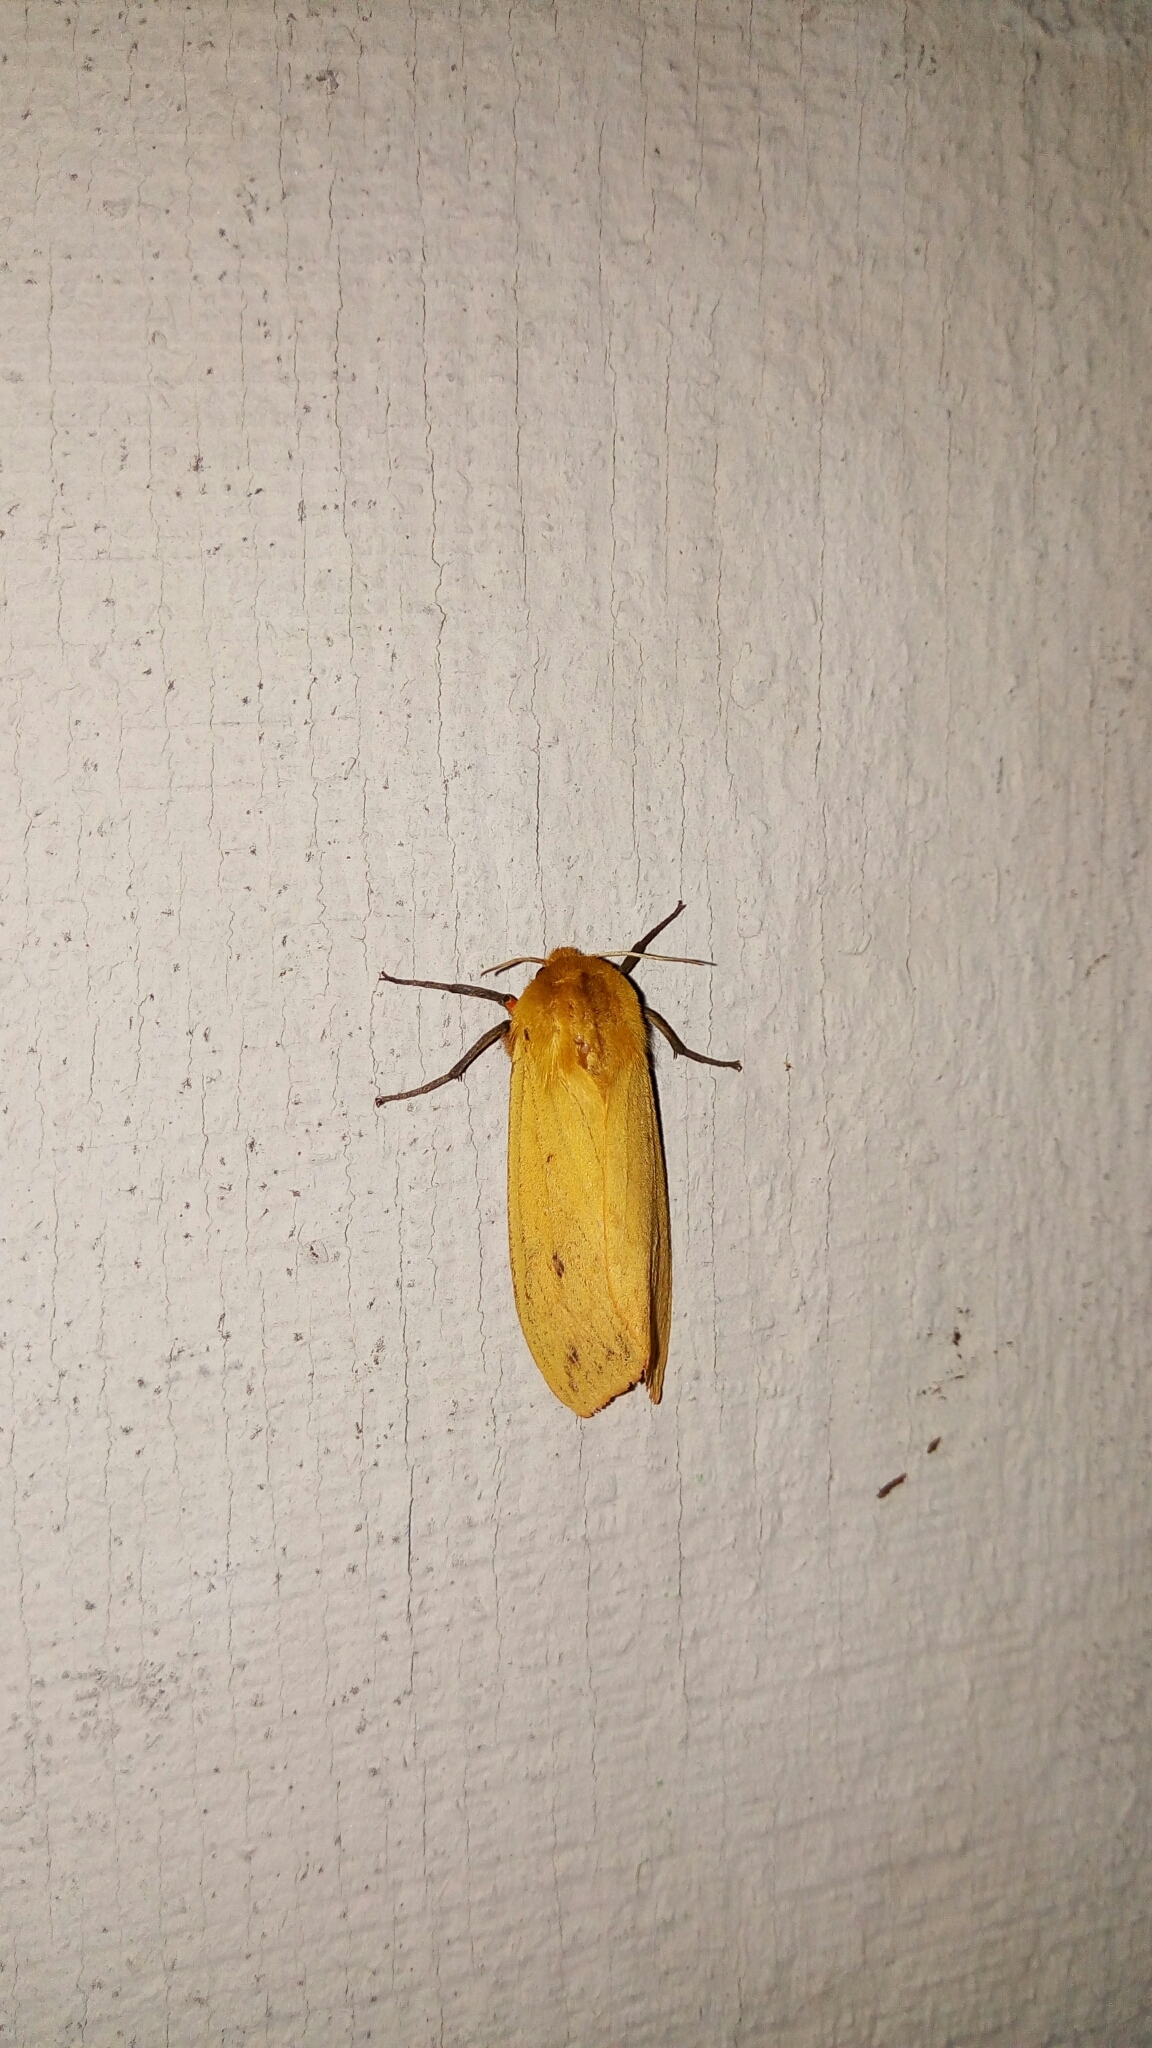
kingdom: Animalia
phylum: Arthropoda
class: Insecta
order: Lepidoptera
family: Erebidae
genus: Pyrrharctia
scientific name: Pyrrharctia isabella
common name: Isabella tiger moth
